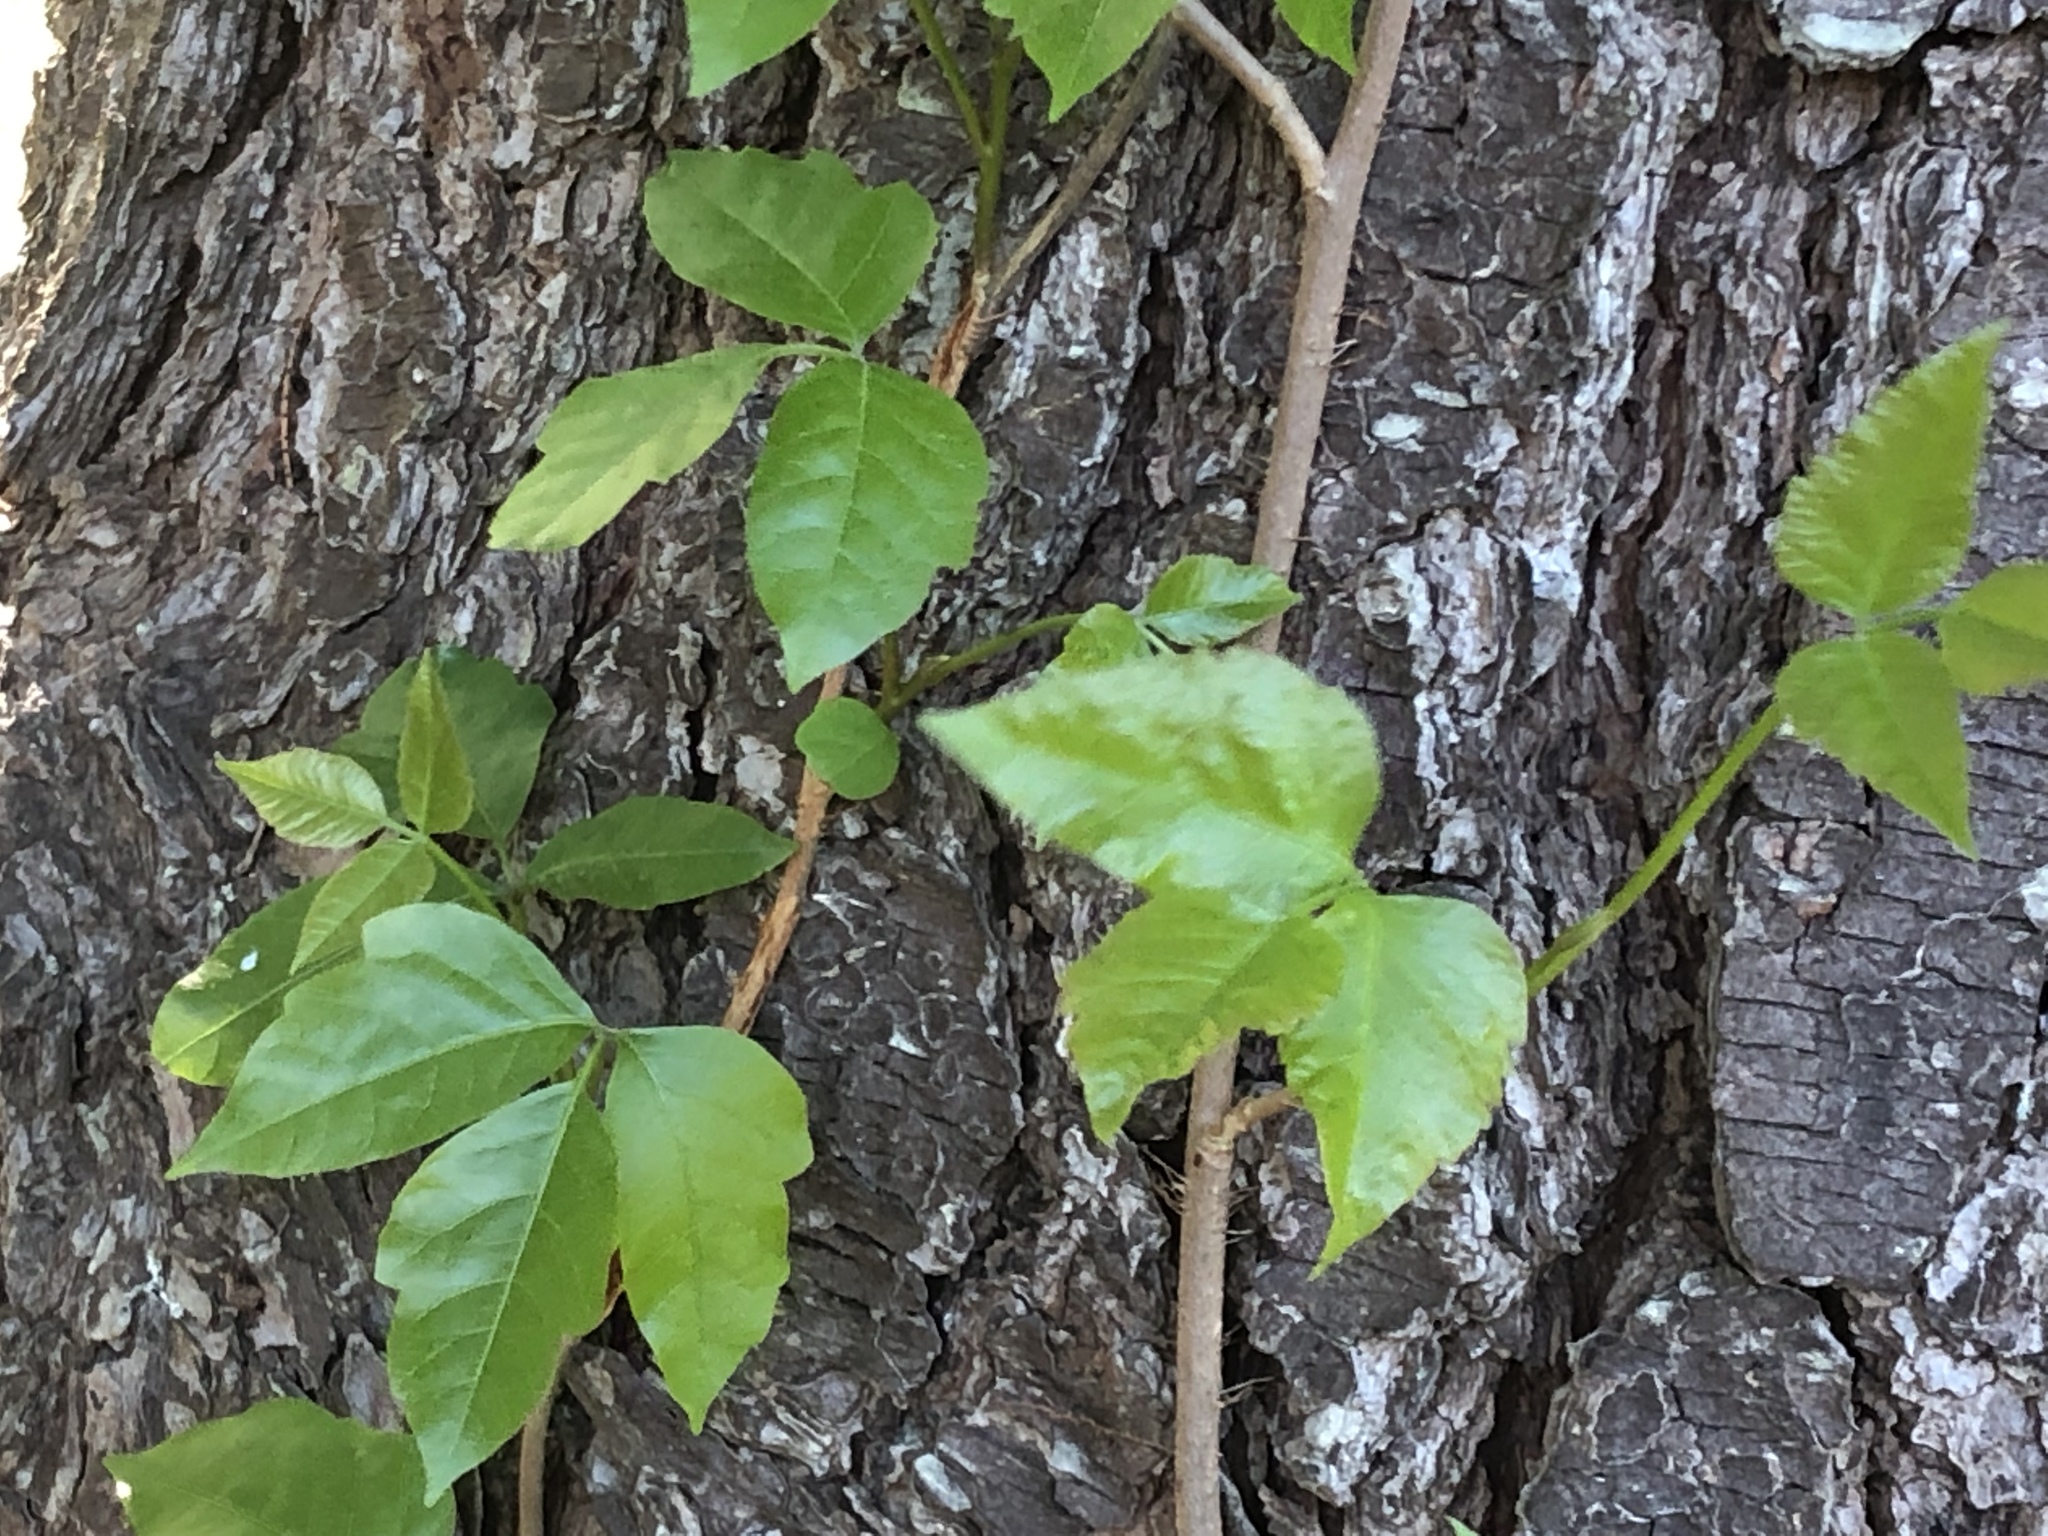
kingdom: Plantae
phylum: Tracheophyta
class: Magnoliopsida
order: Sapindales
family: Anacardiaceae
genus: Toxicodendron
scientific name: Toxicodendron radicans
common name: Poison ivy
